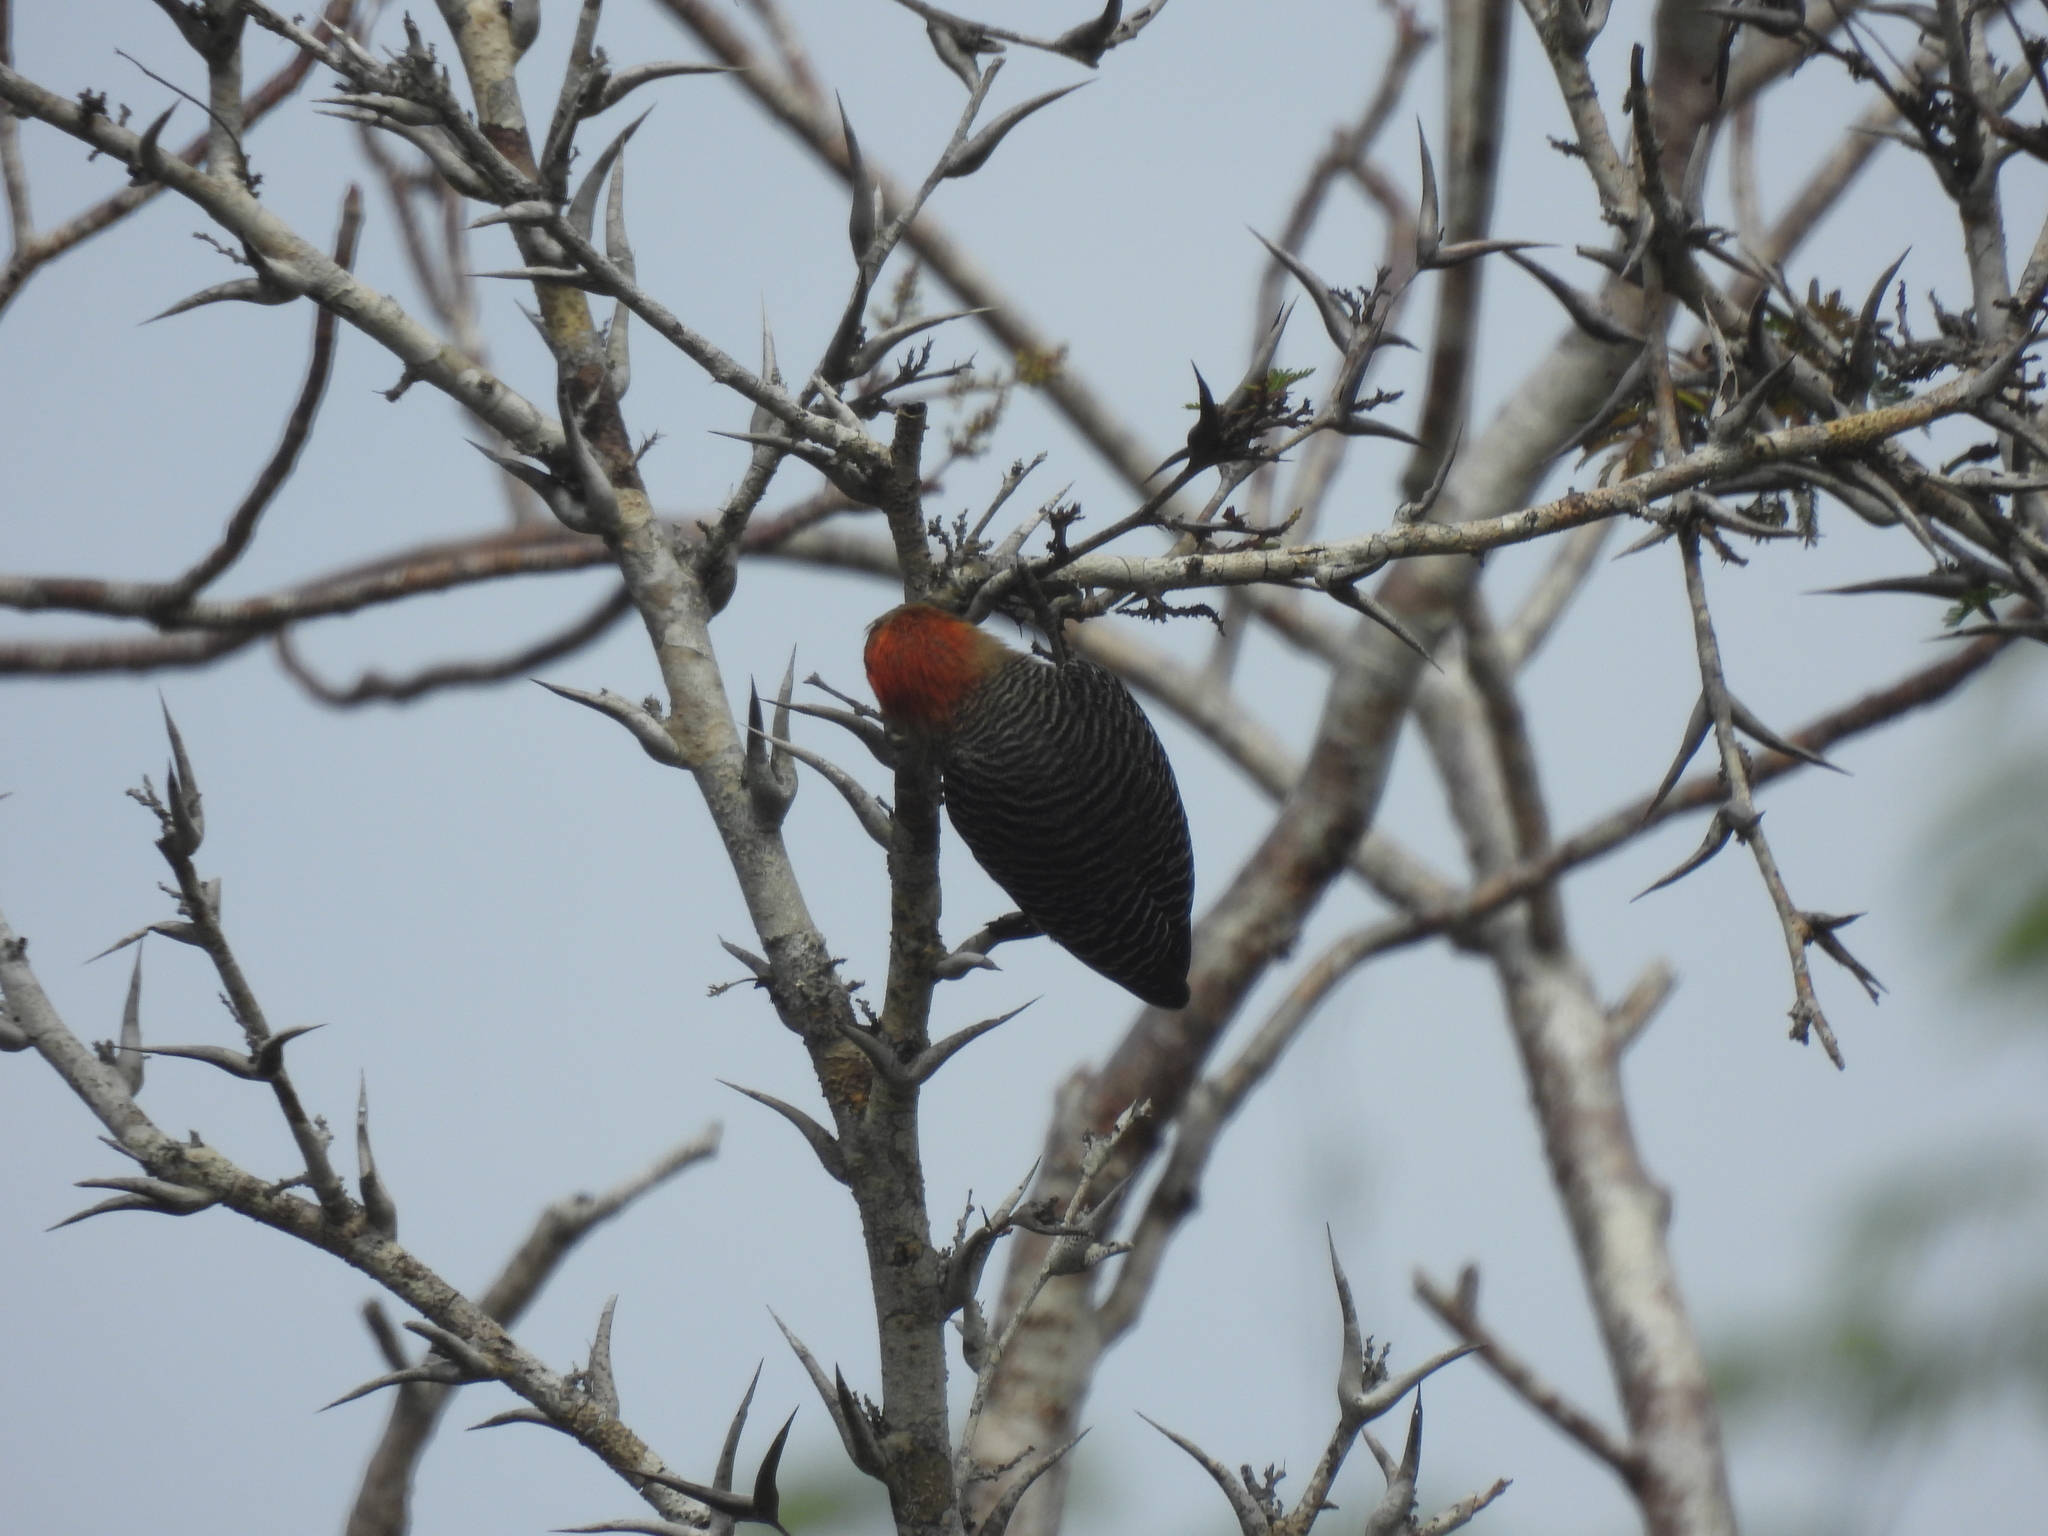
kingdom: Animalia
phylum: Chordata
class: Aves
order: Piciformes
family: Picidae
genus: Melanerpes
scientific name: Melanerpes pygmaeus
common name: Yucatan woodpecker
